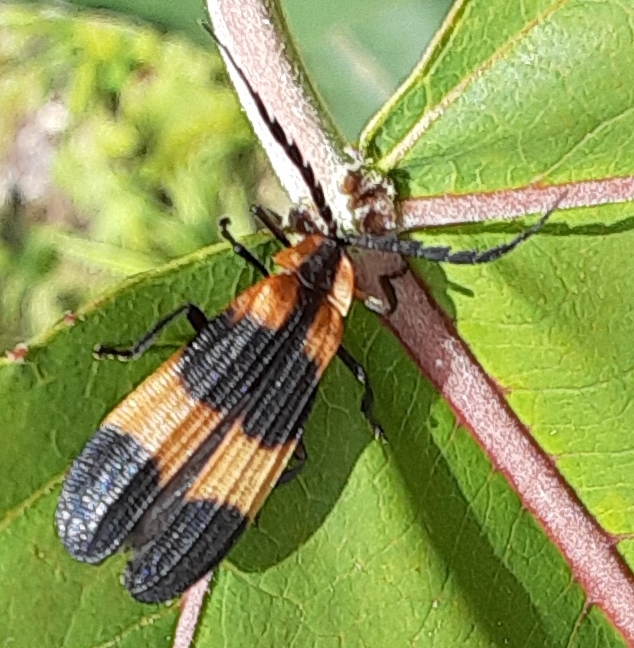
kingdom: Animalia
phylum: Arthropoda
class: Insecta
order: Coleoptera
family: Lycidae
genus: Calopteron
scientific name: Calopteron reticulatum
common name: Banded net-winged beetle
